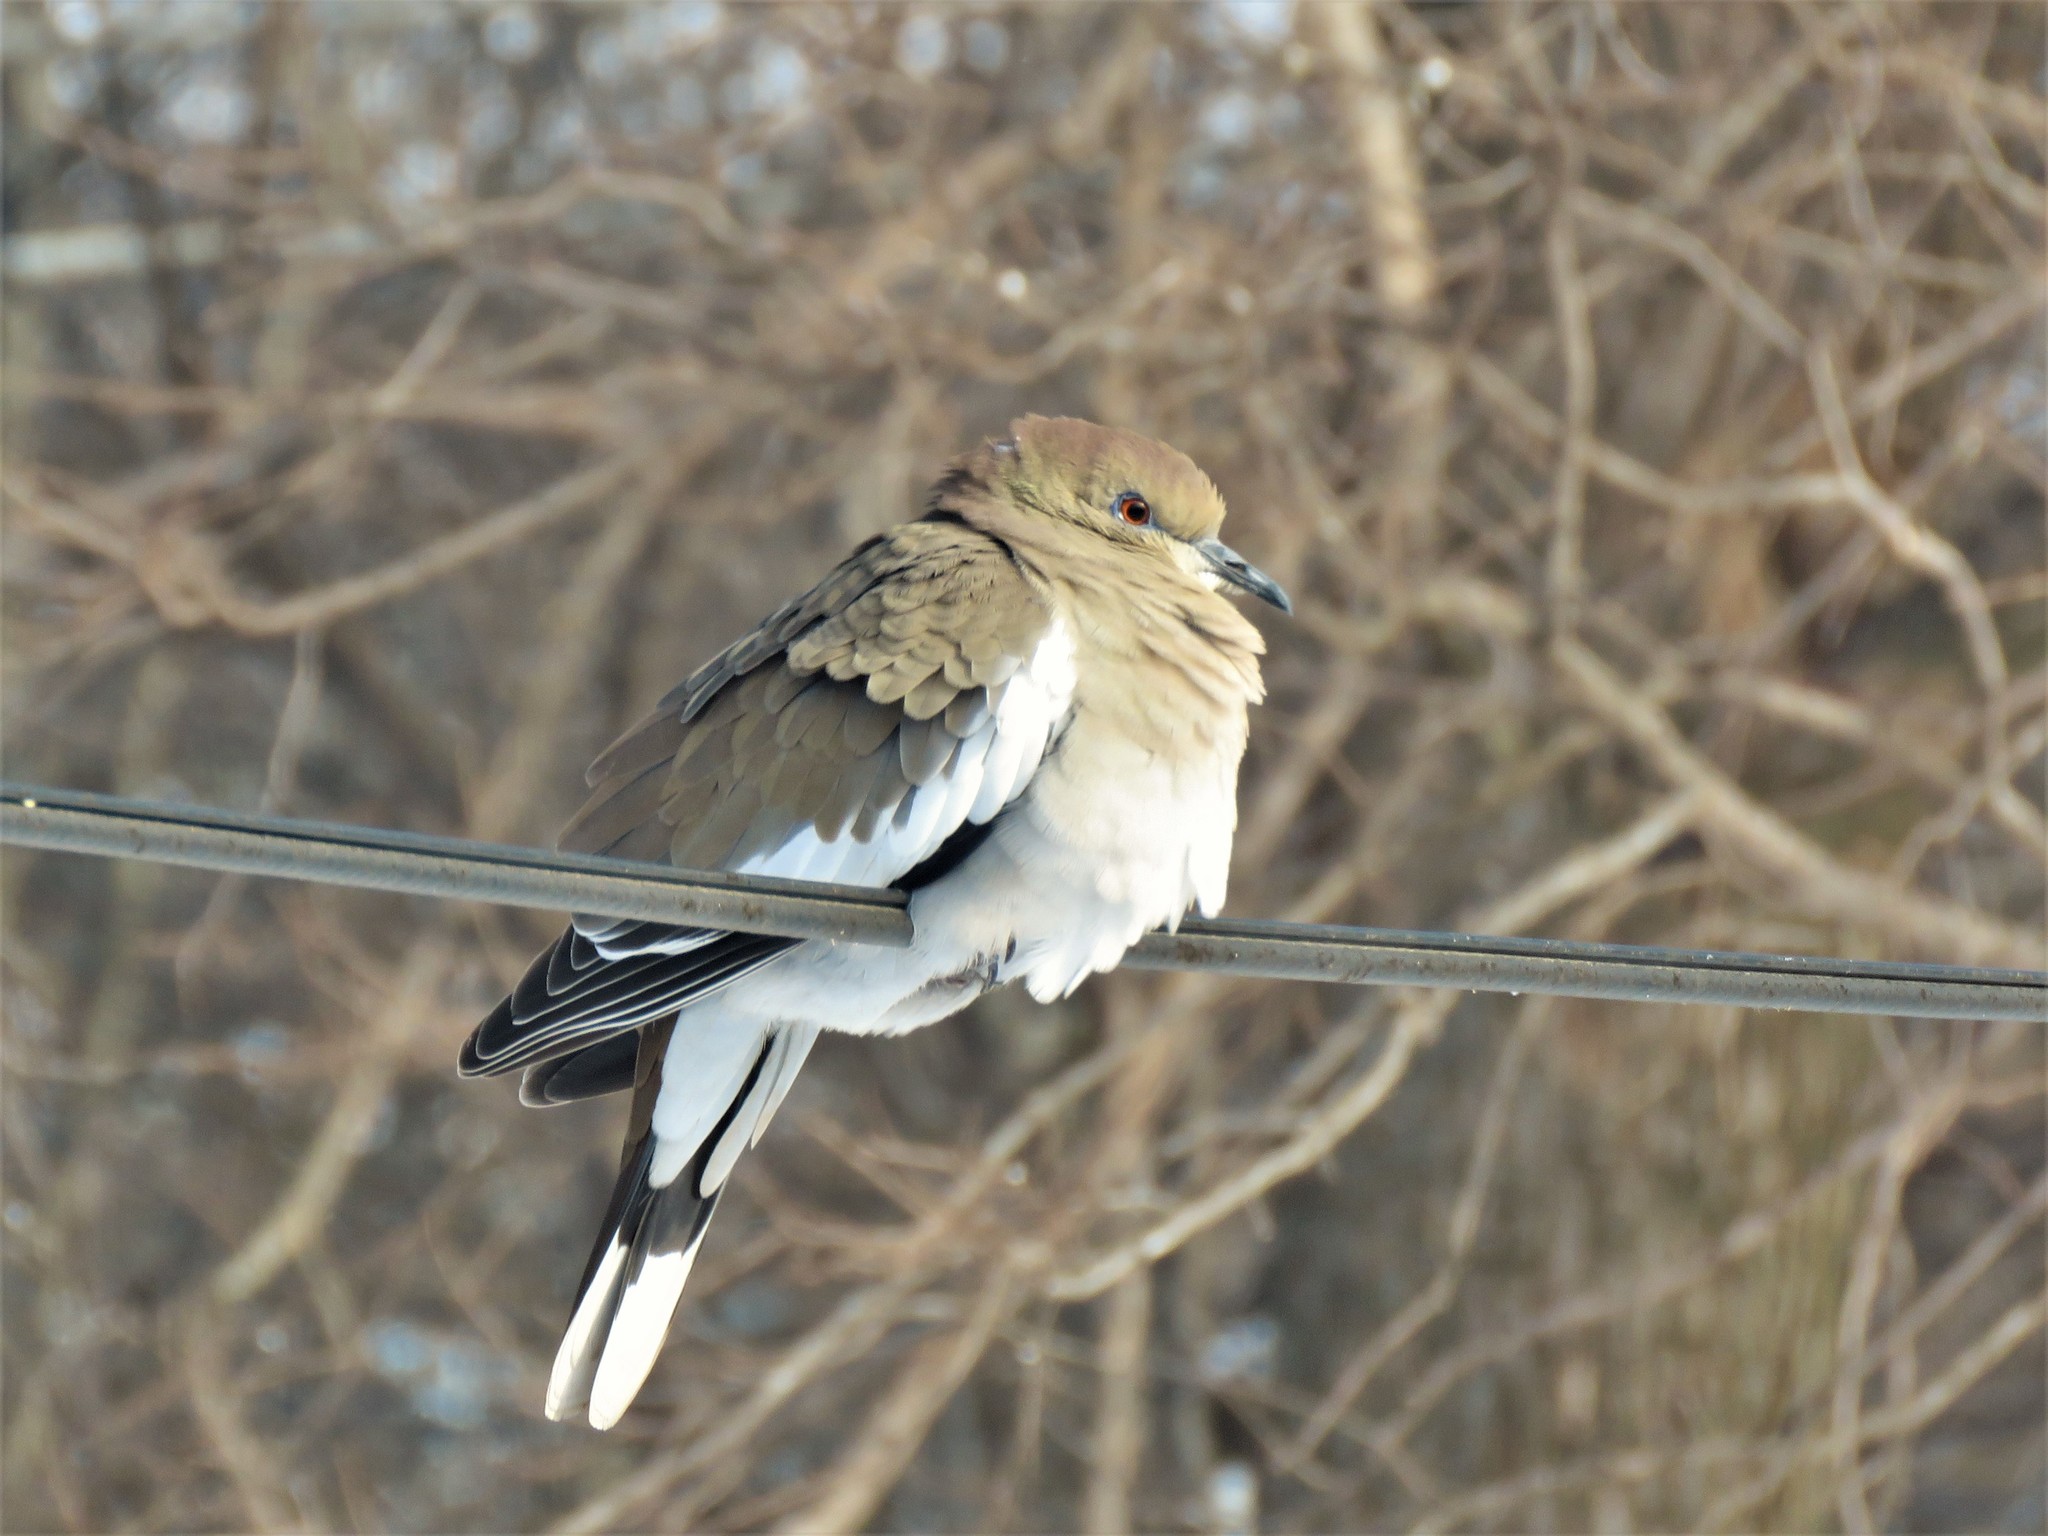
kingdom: Animalia
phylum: Chordata
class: Aves
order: Columbiformes
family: Columbidae
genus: Zenaida
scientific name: Zenaida asiatica
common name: White-winged dove
